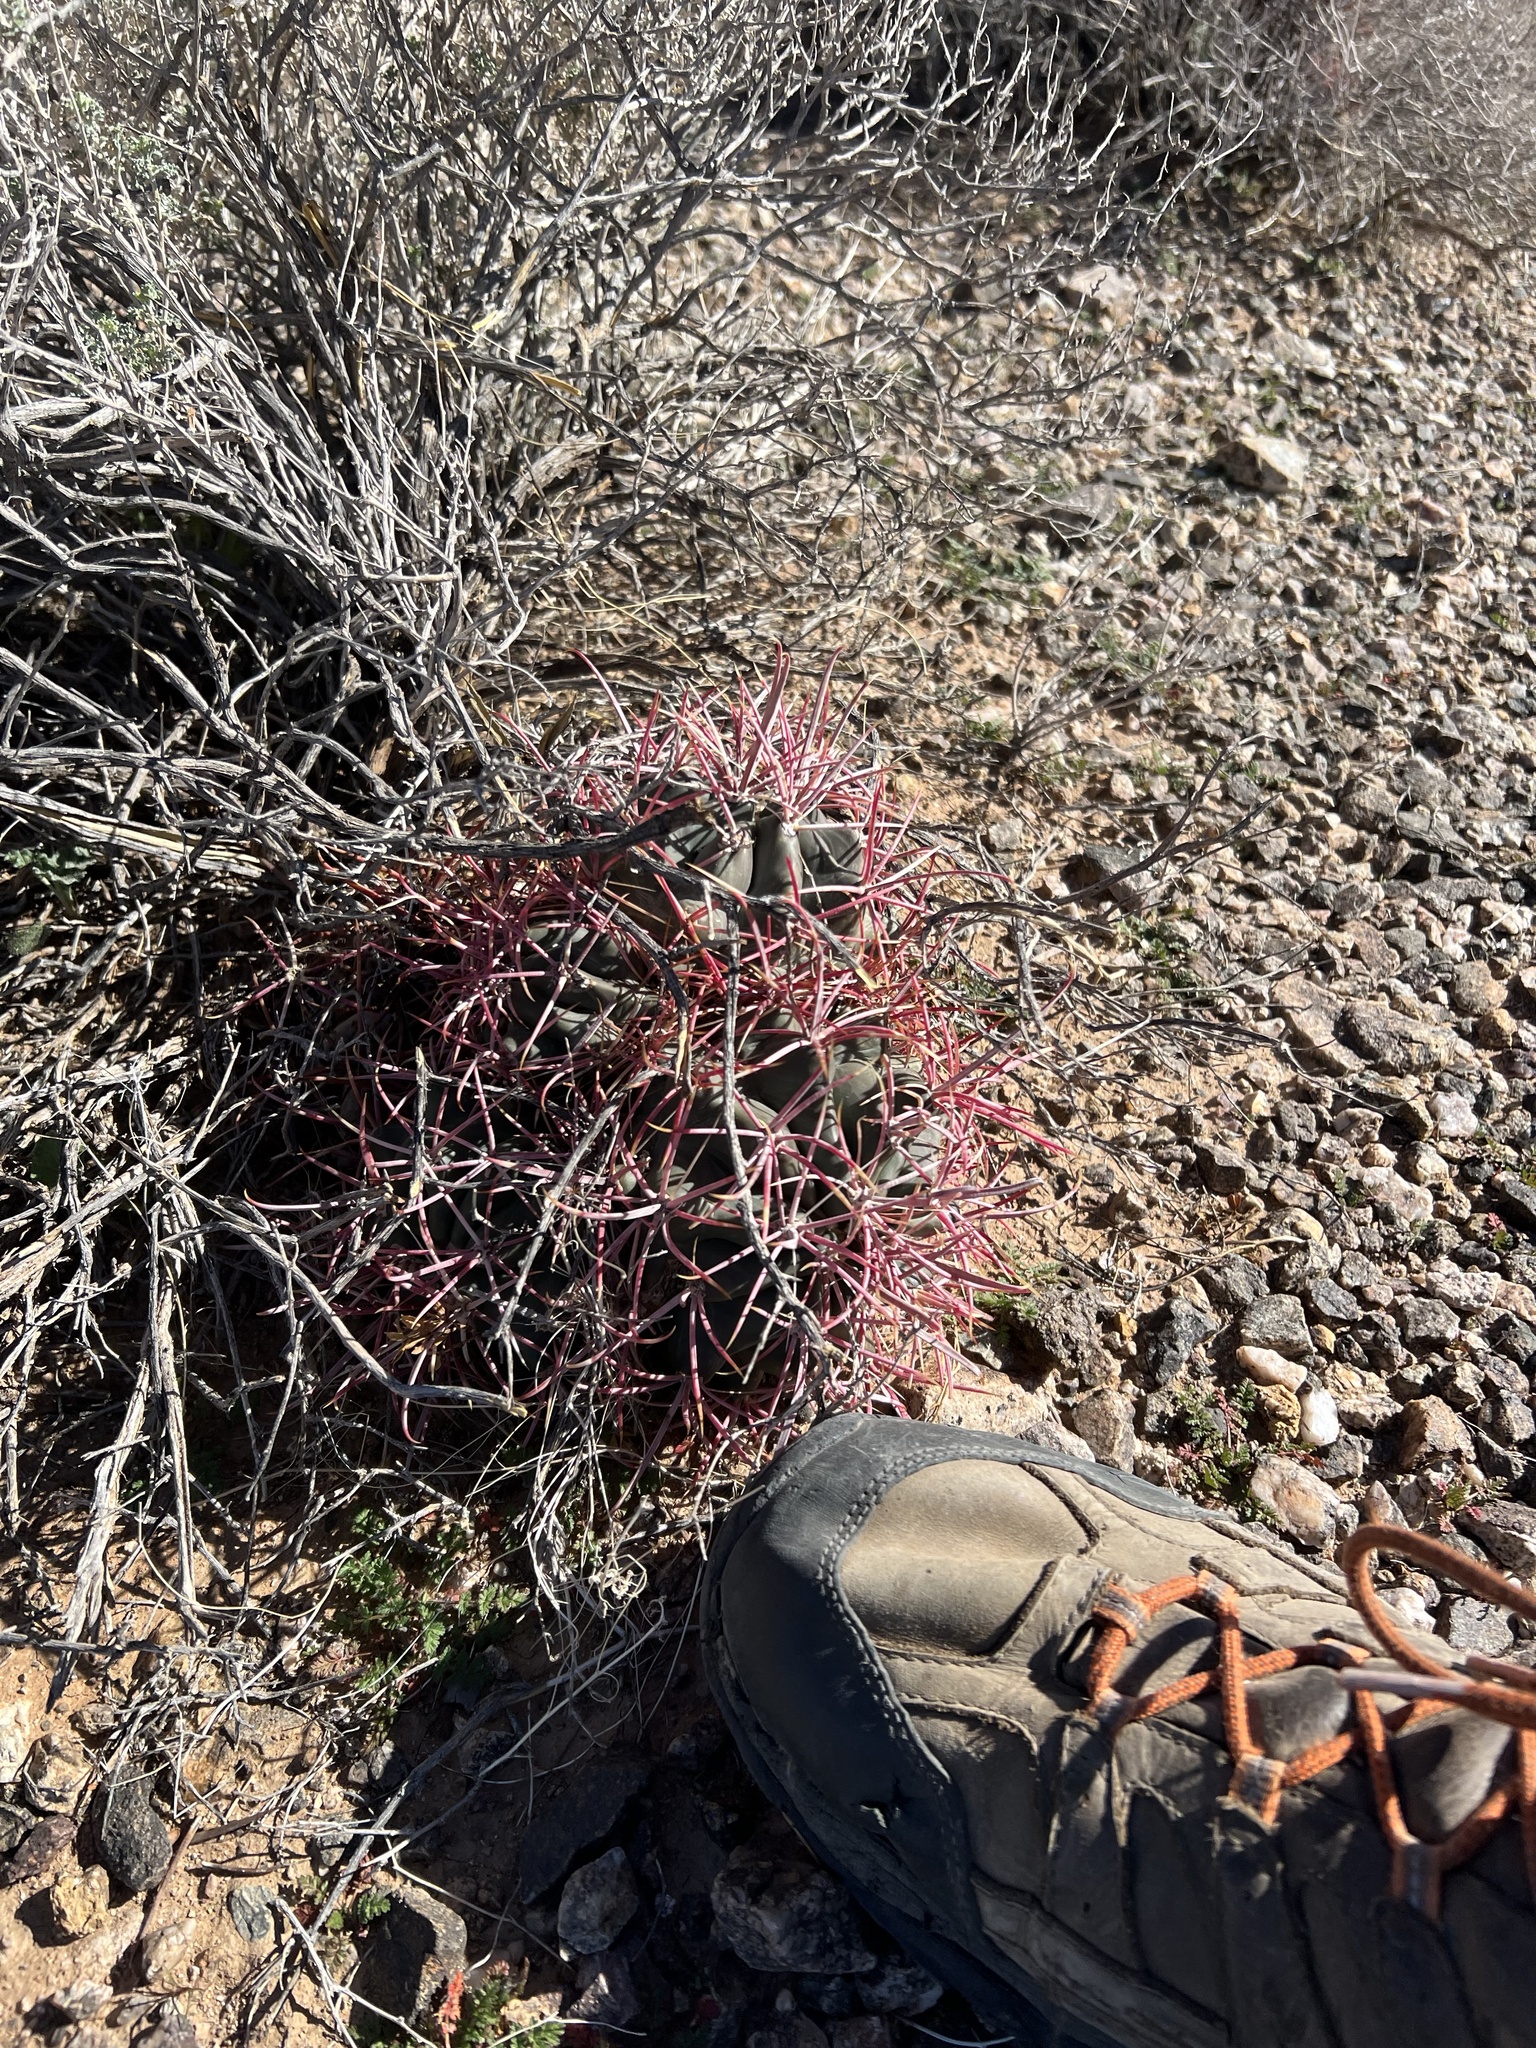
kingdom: Plantae
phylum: Tracheophyta
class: Magnoliopsida
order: Caryophyllales
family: Cactaceae
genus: Echinocactus
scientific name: Echinocactus polycephalus
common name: Cottontop cactus
